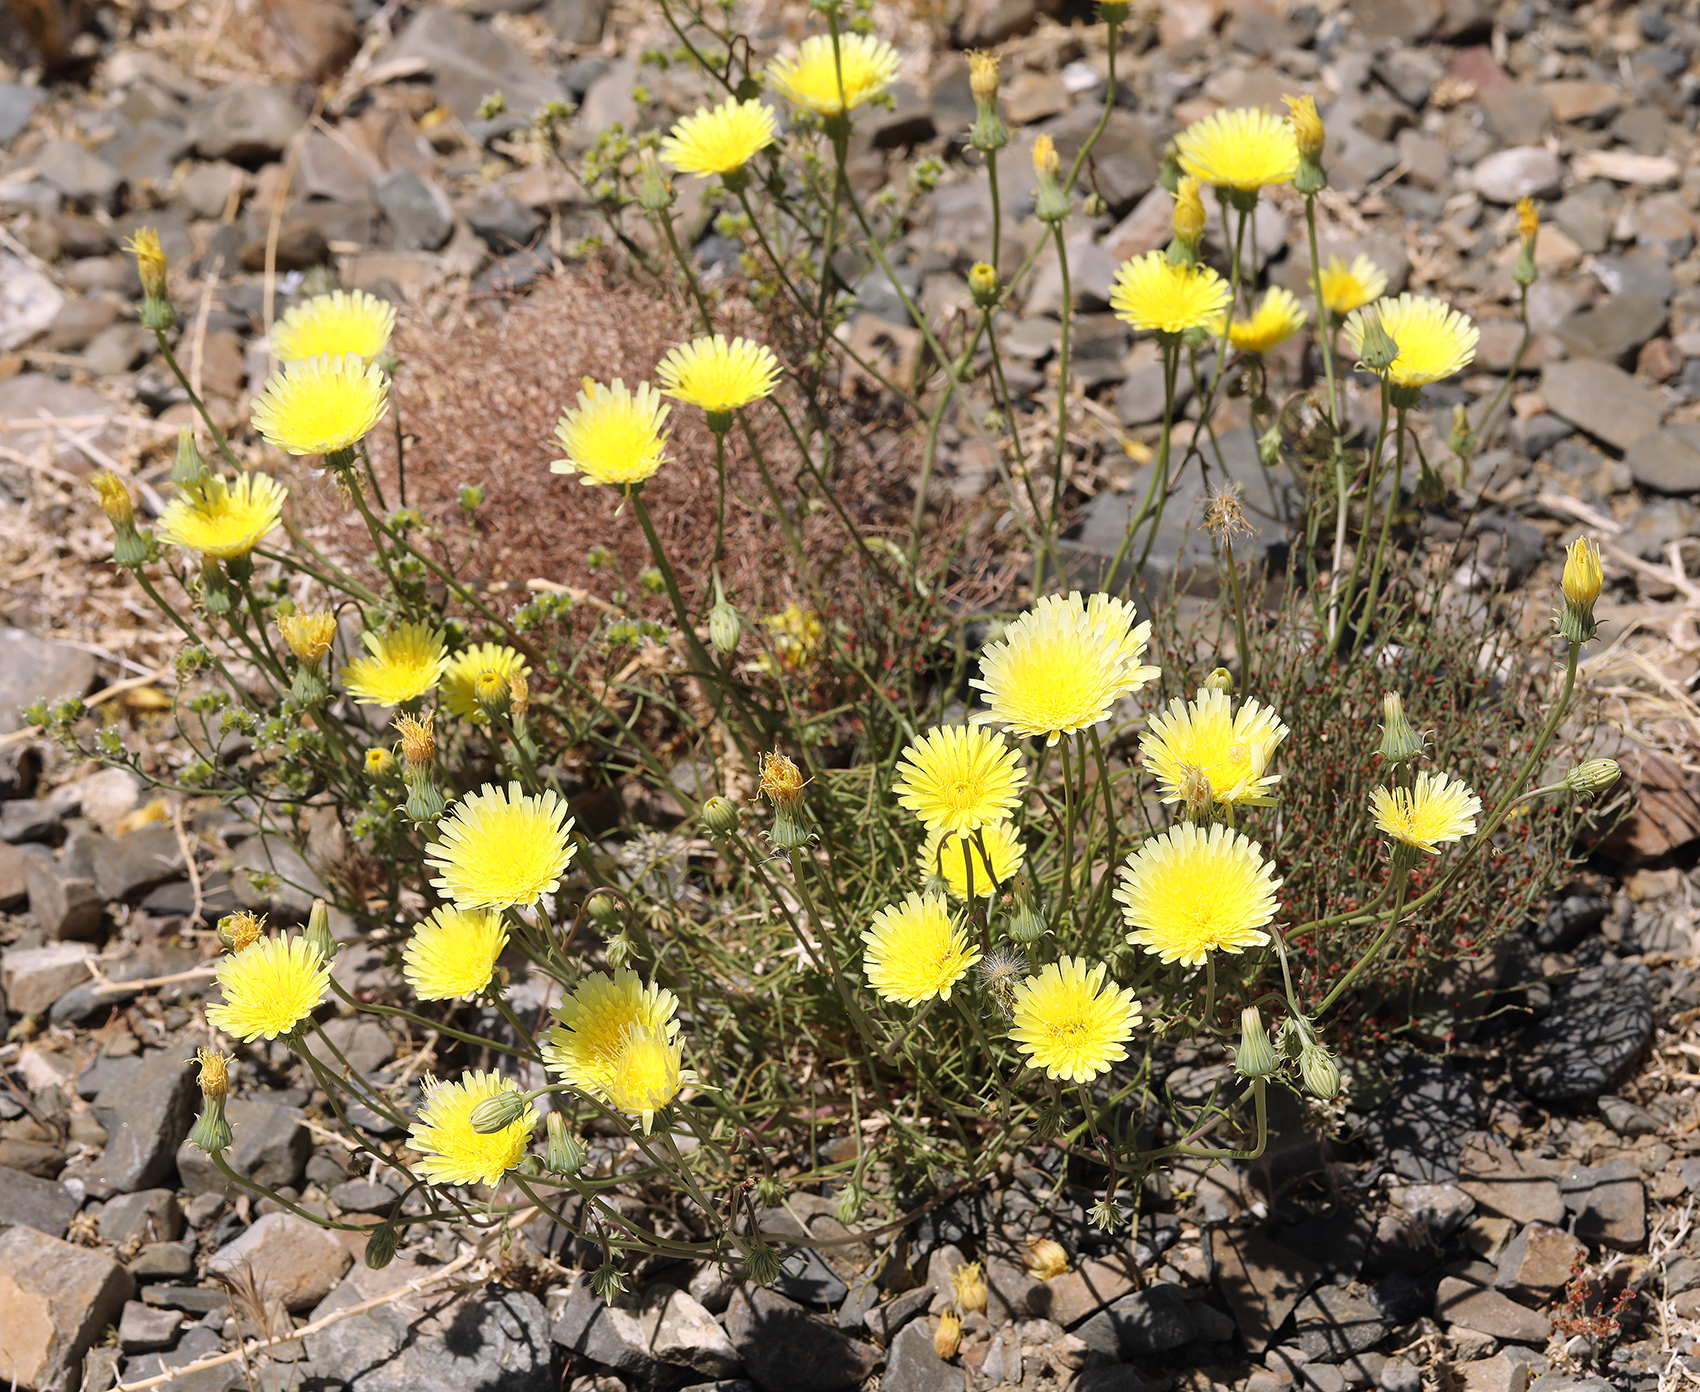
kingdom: Plantae
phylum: Tracheophyta
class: Magnoliopsida
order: Asterales
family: Asteraceae
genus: Malacothrix
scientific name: Malacothrix glabrata
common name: Smooth desert-dandelion
